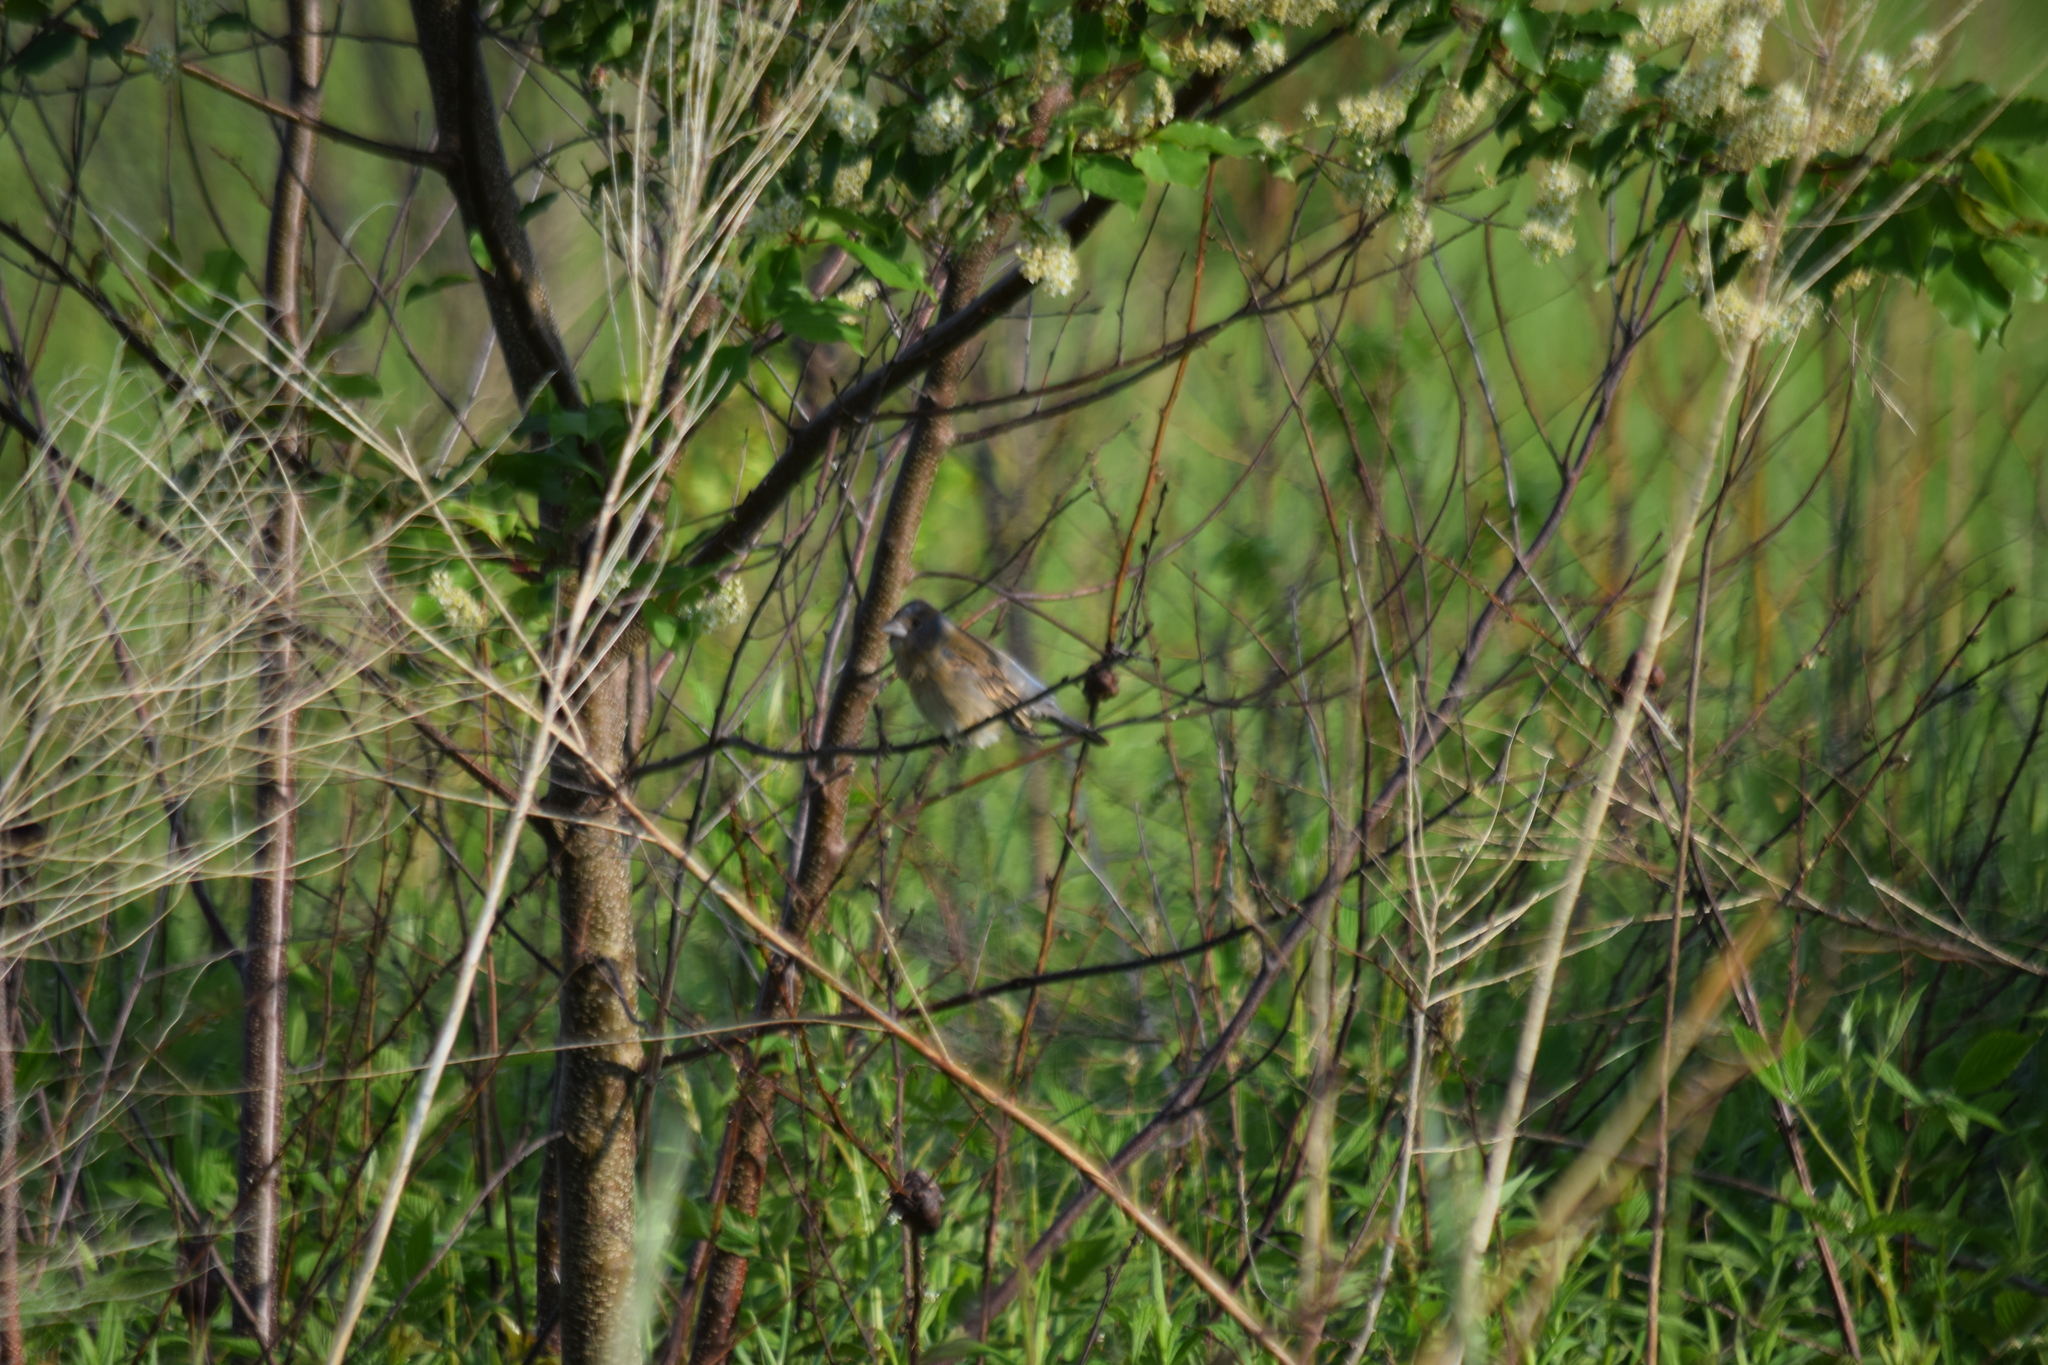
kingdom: Animalia
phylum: Chordata
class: Aves
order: Passeriformes
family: Turdidae
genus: Sialia
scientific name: Sialia sialis
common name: Eastern bluebird
